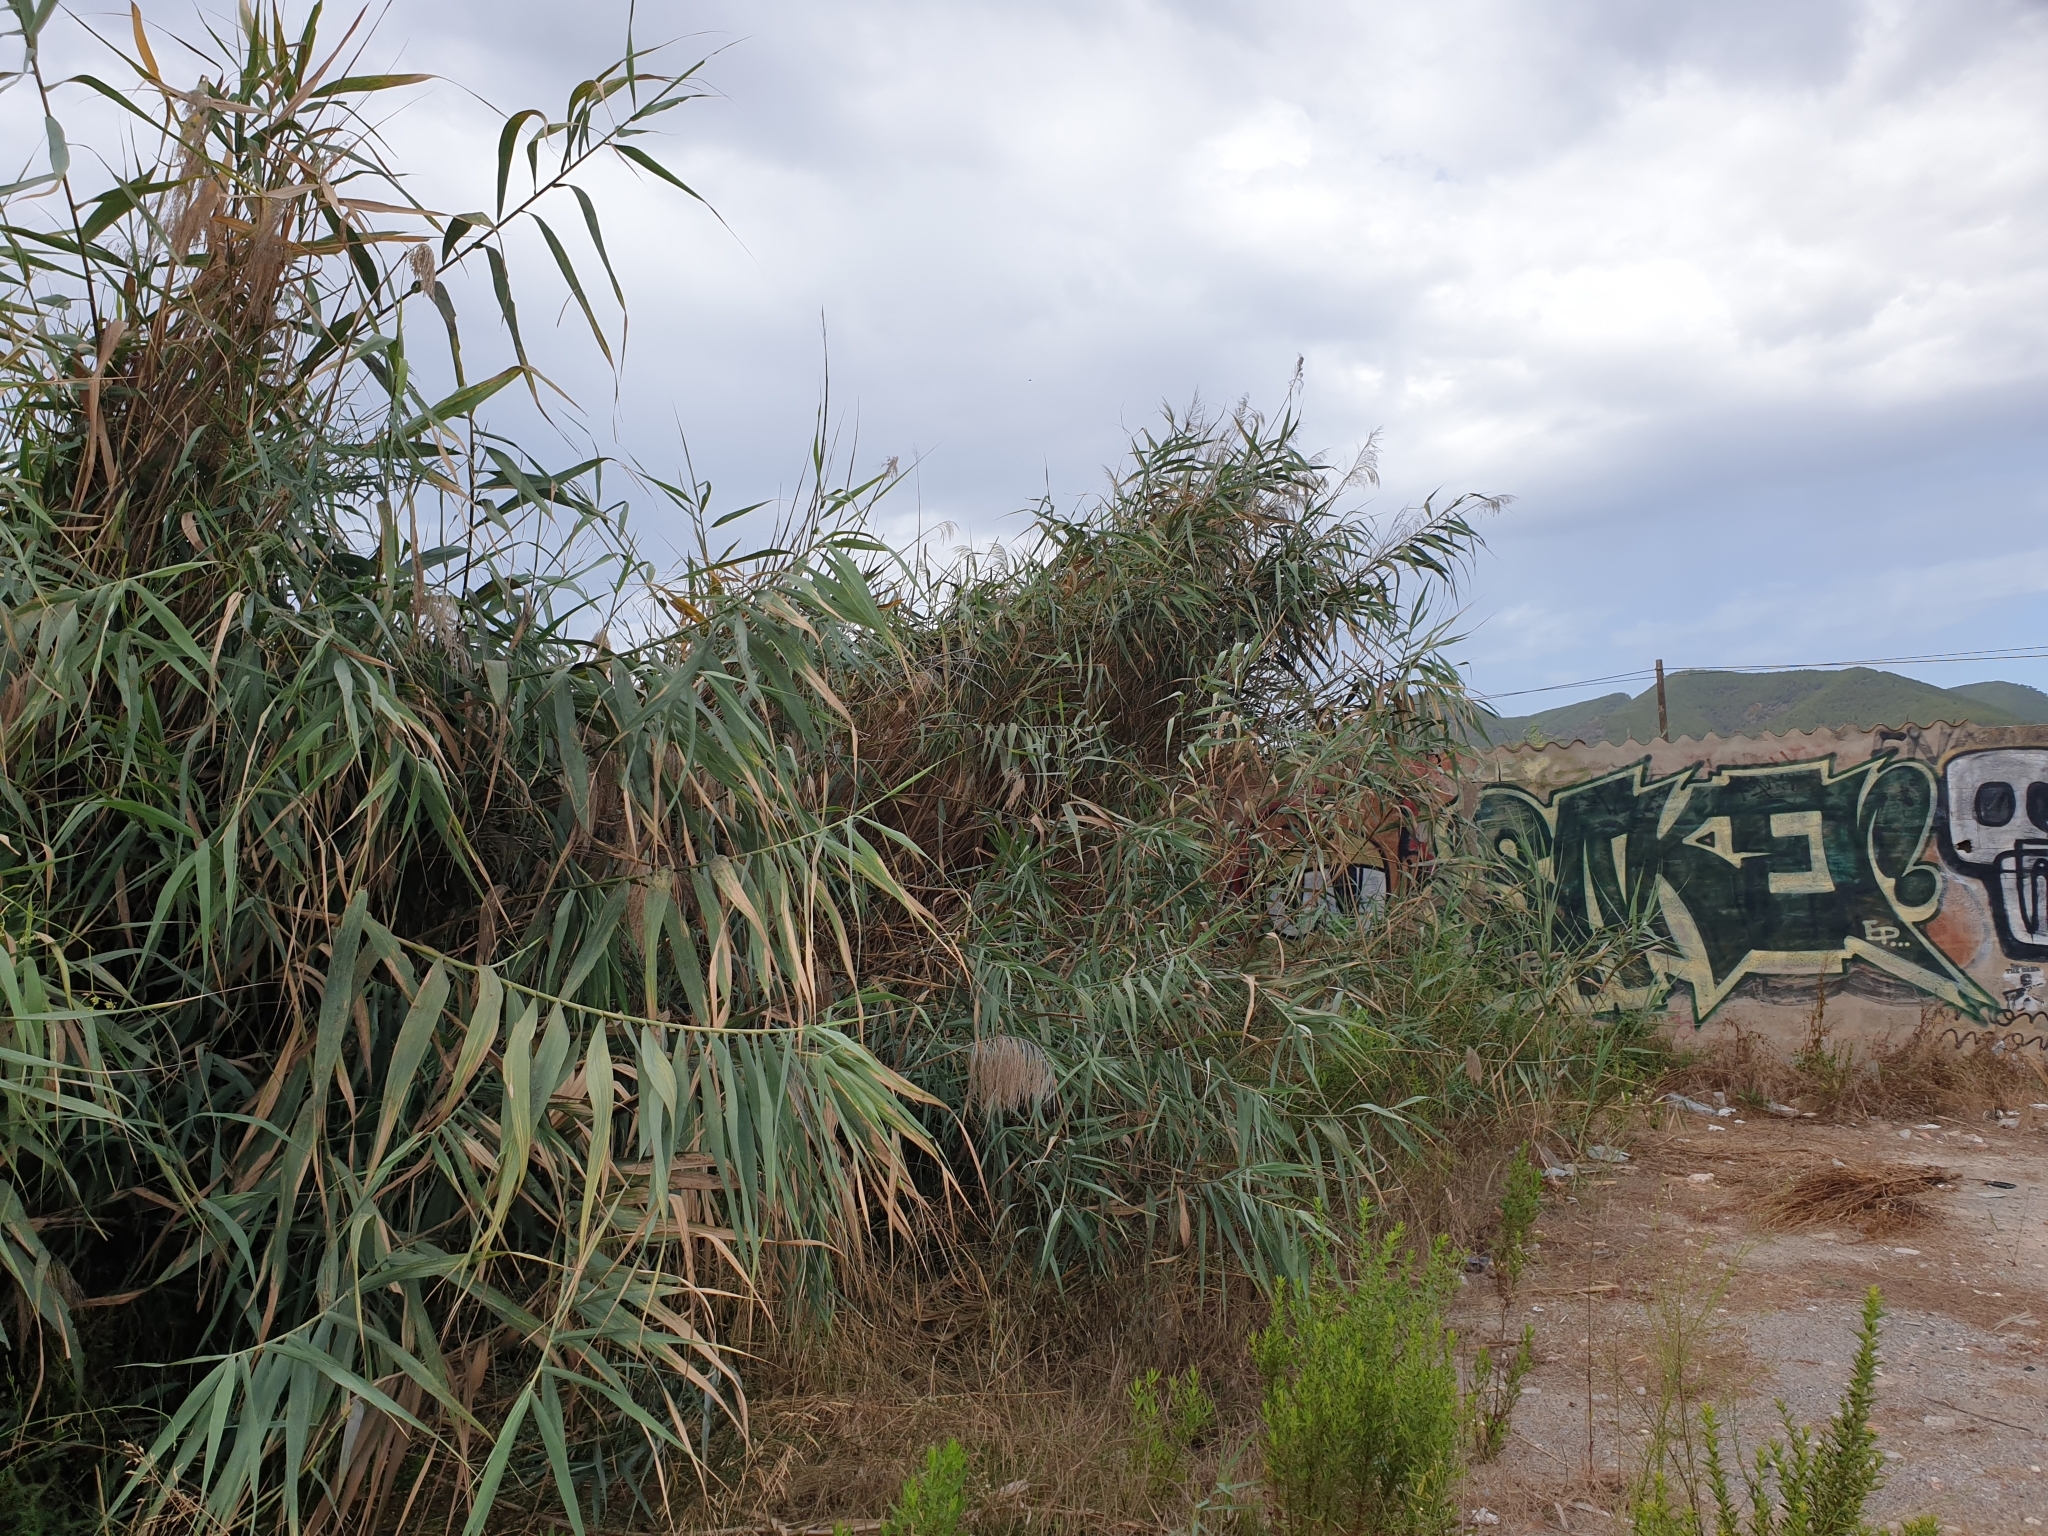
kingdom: Plantae
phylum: Tracheophyta
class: Liliopsida
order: Poales
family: Poaceae
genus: Arundo
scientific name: Arundo donax
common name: Giant reed
